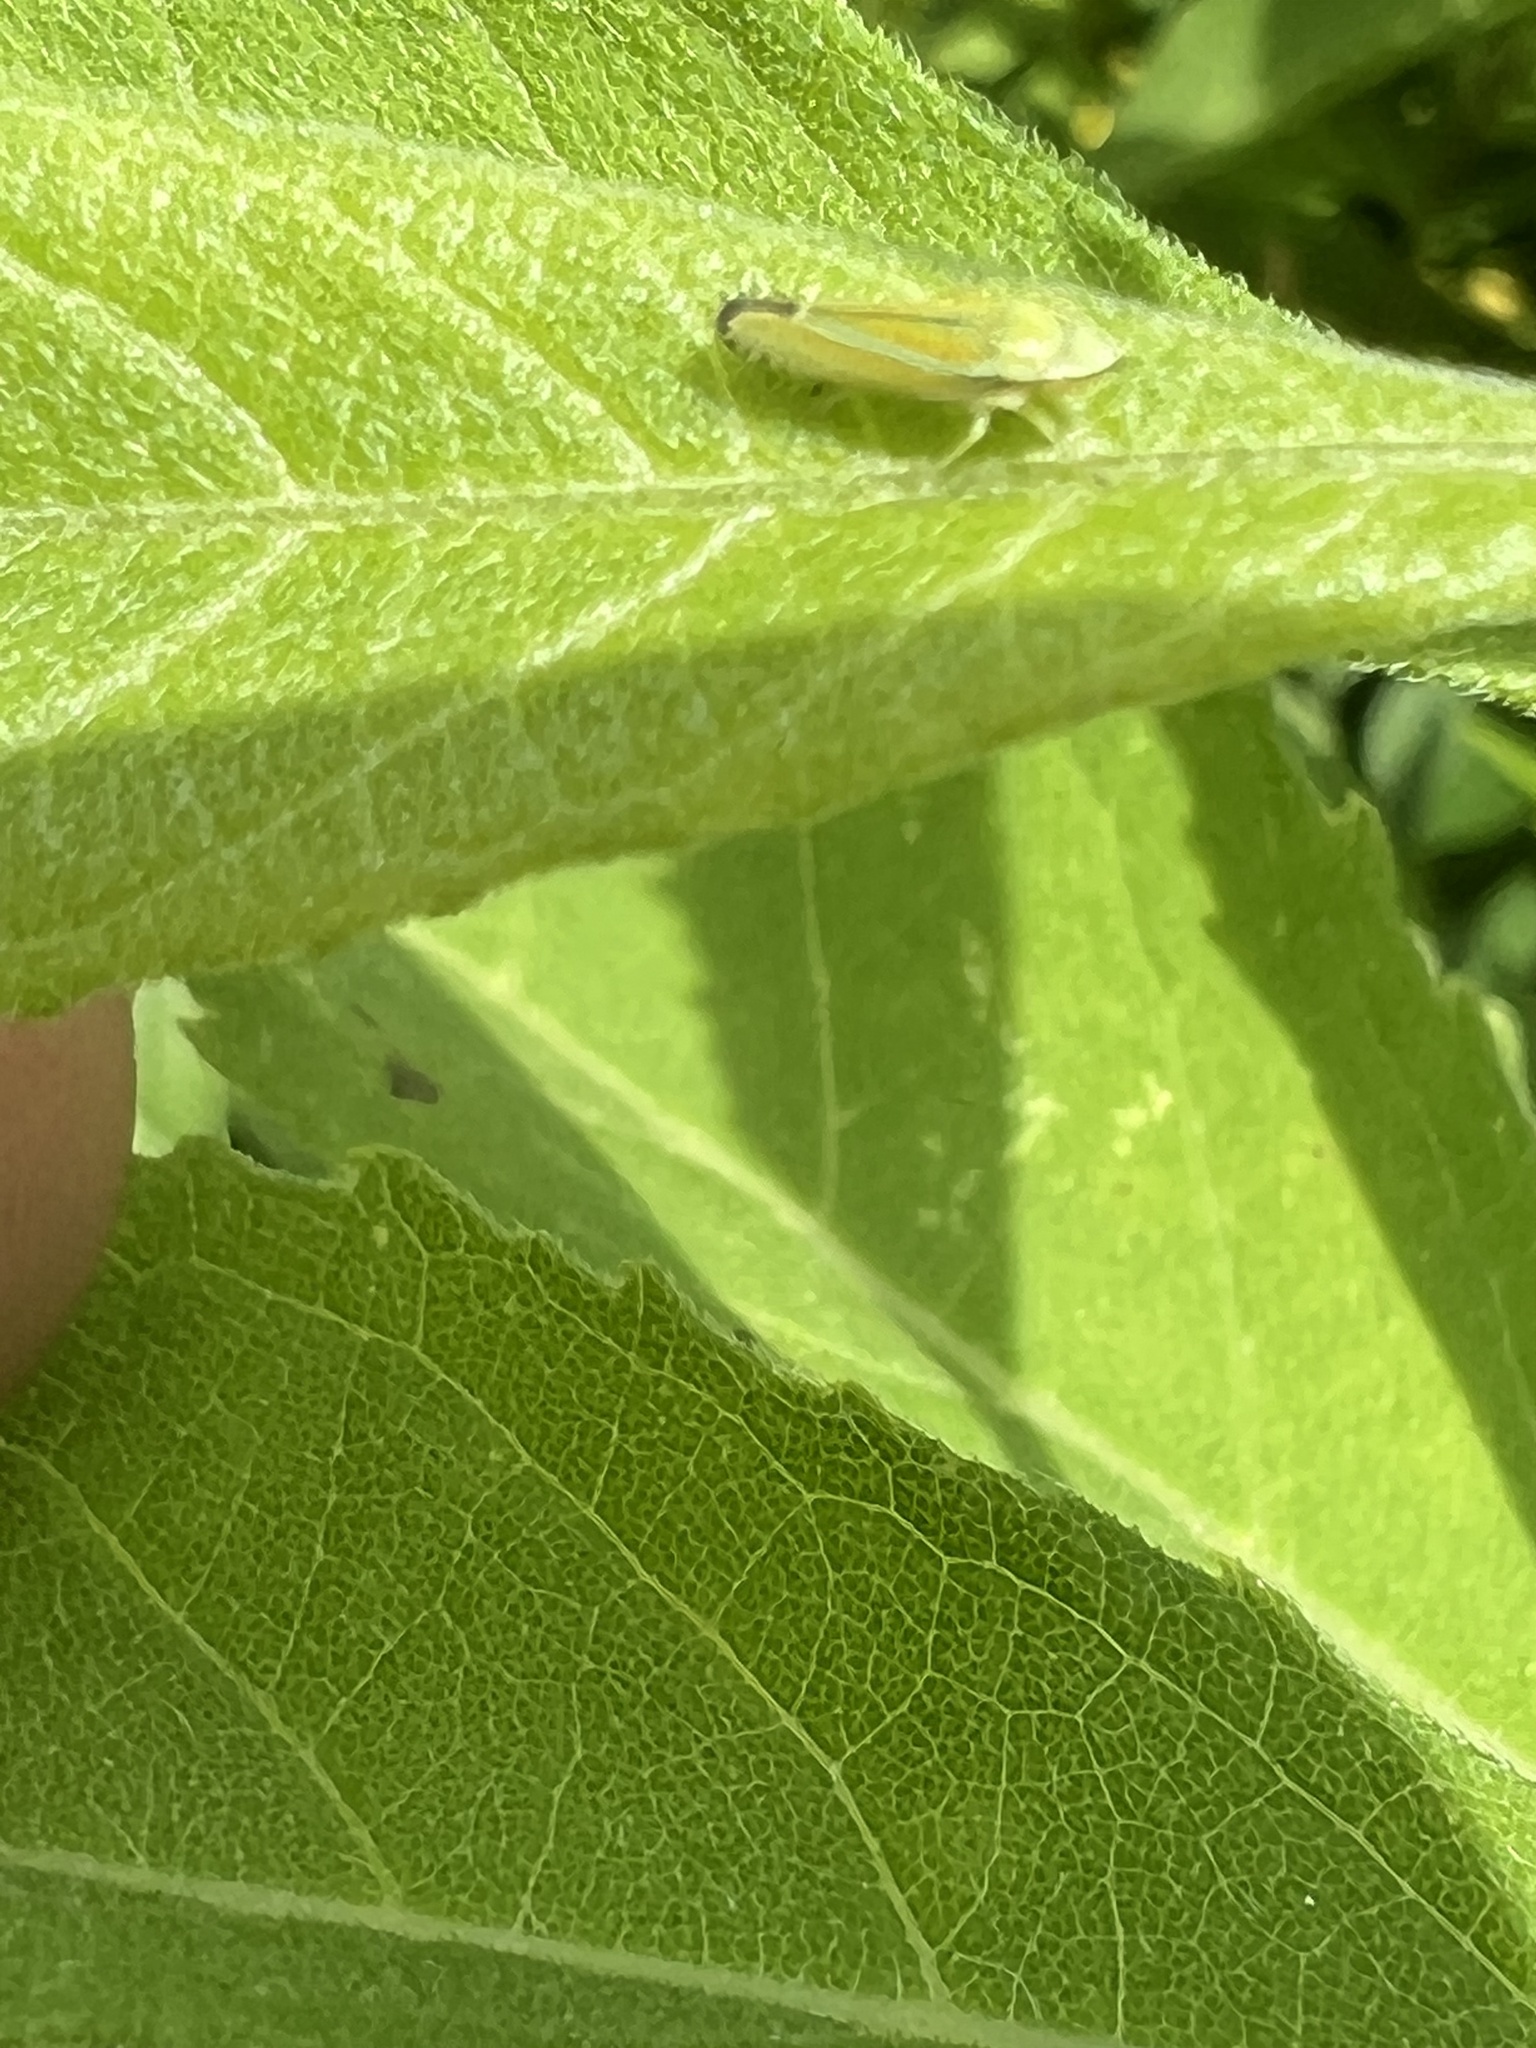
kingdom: Animalia
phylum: Arthropoda
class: Insecta
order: Hemiptera
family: Cicadellidae
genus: Graphocephala
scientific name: Graphocephala versuta
